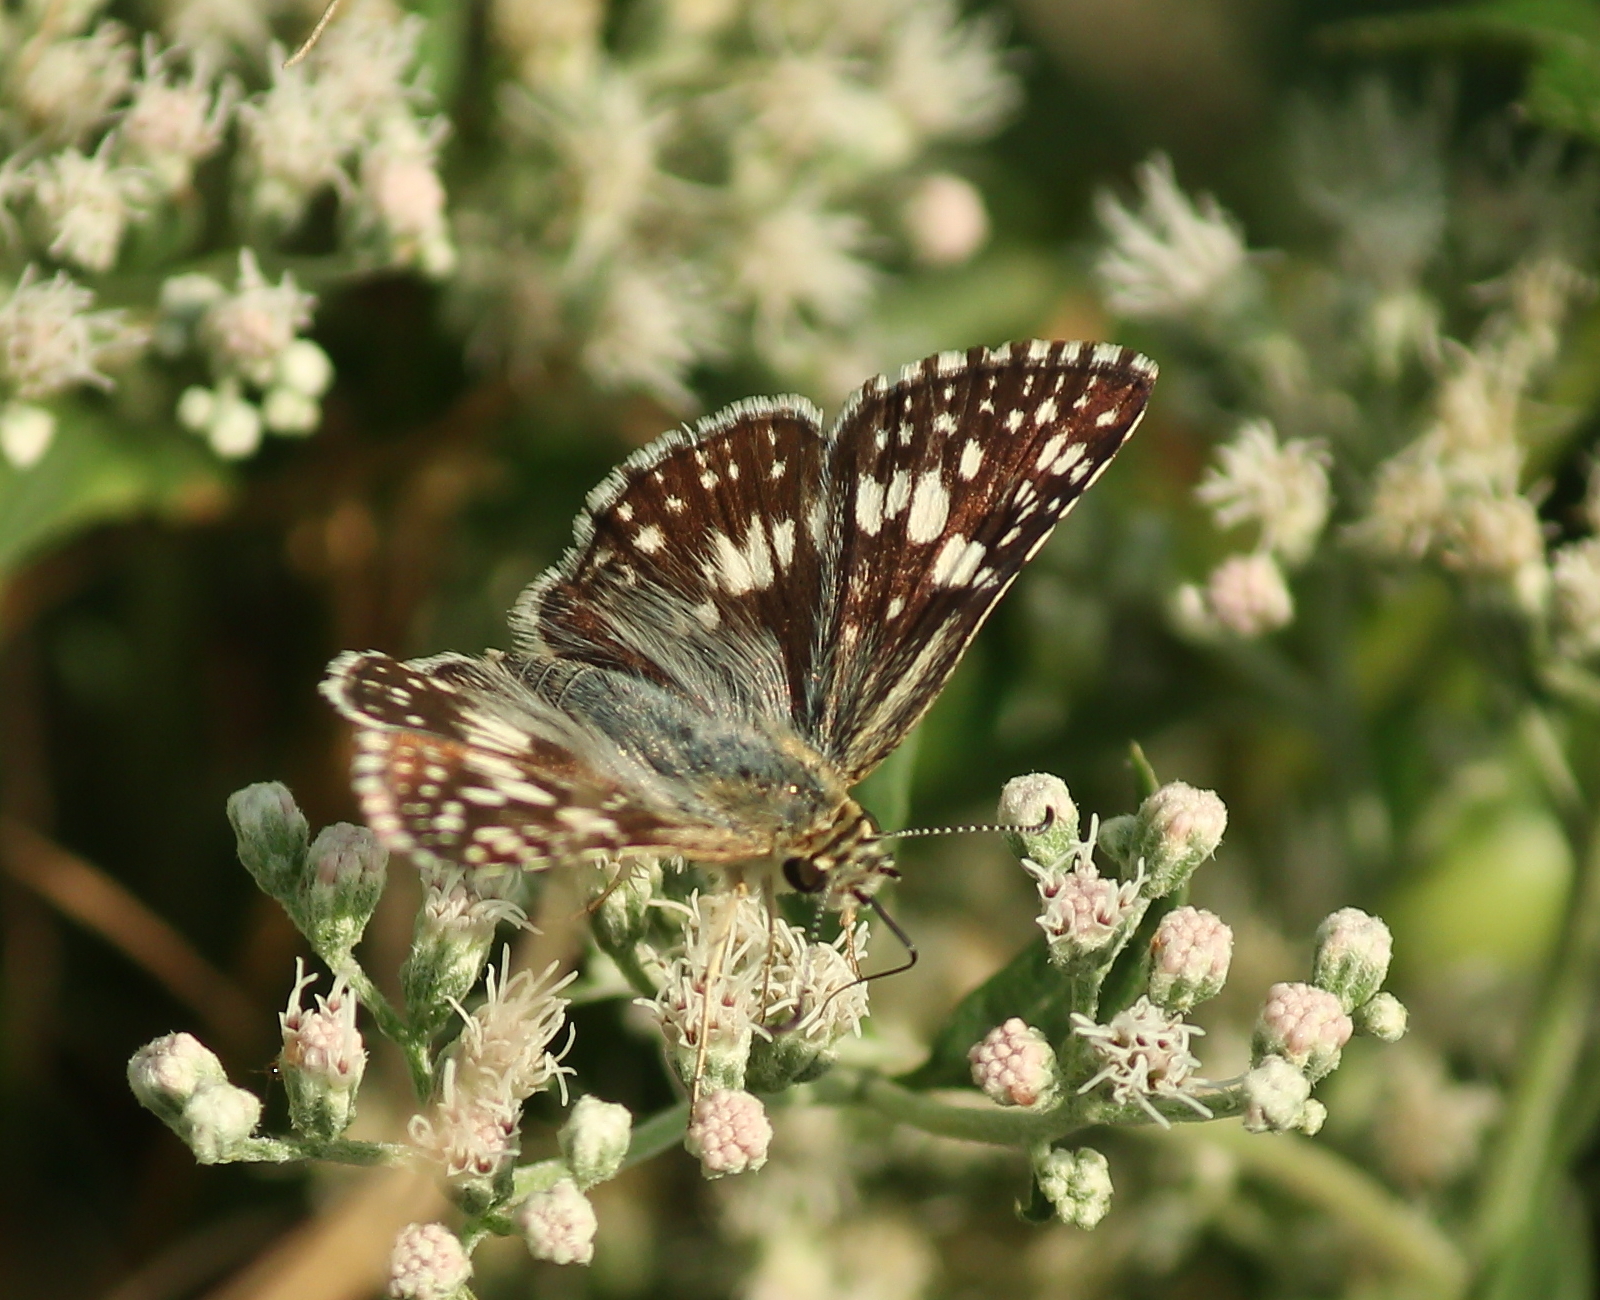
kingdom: Animalia
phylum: Arthropoda
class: Insecta
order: Lepidoptera
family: Hesperiidae
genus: Burnsius
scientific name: Burnsius communis
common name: Common checkered-skipper
